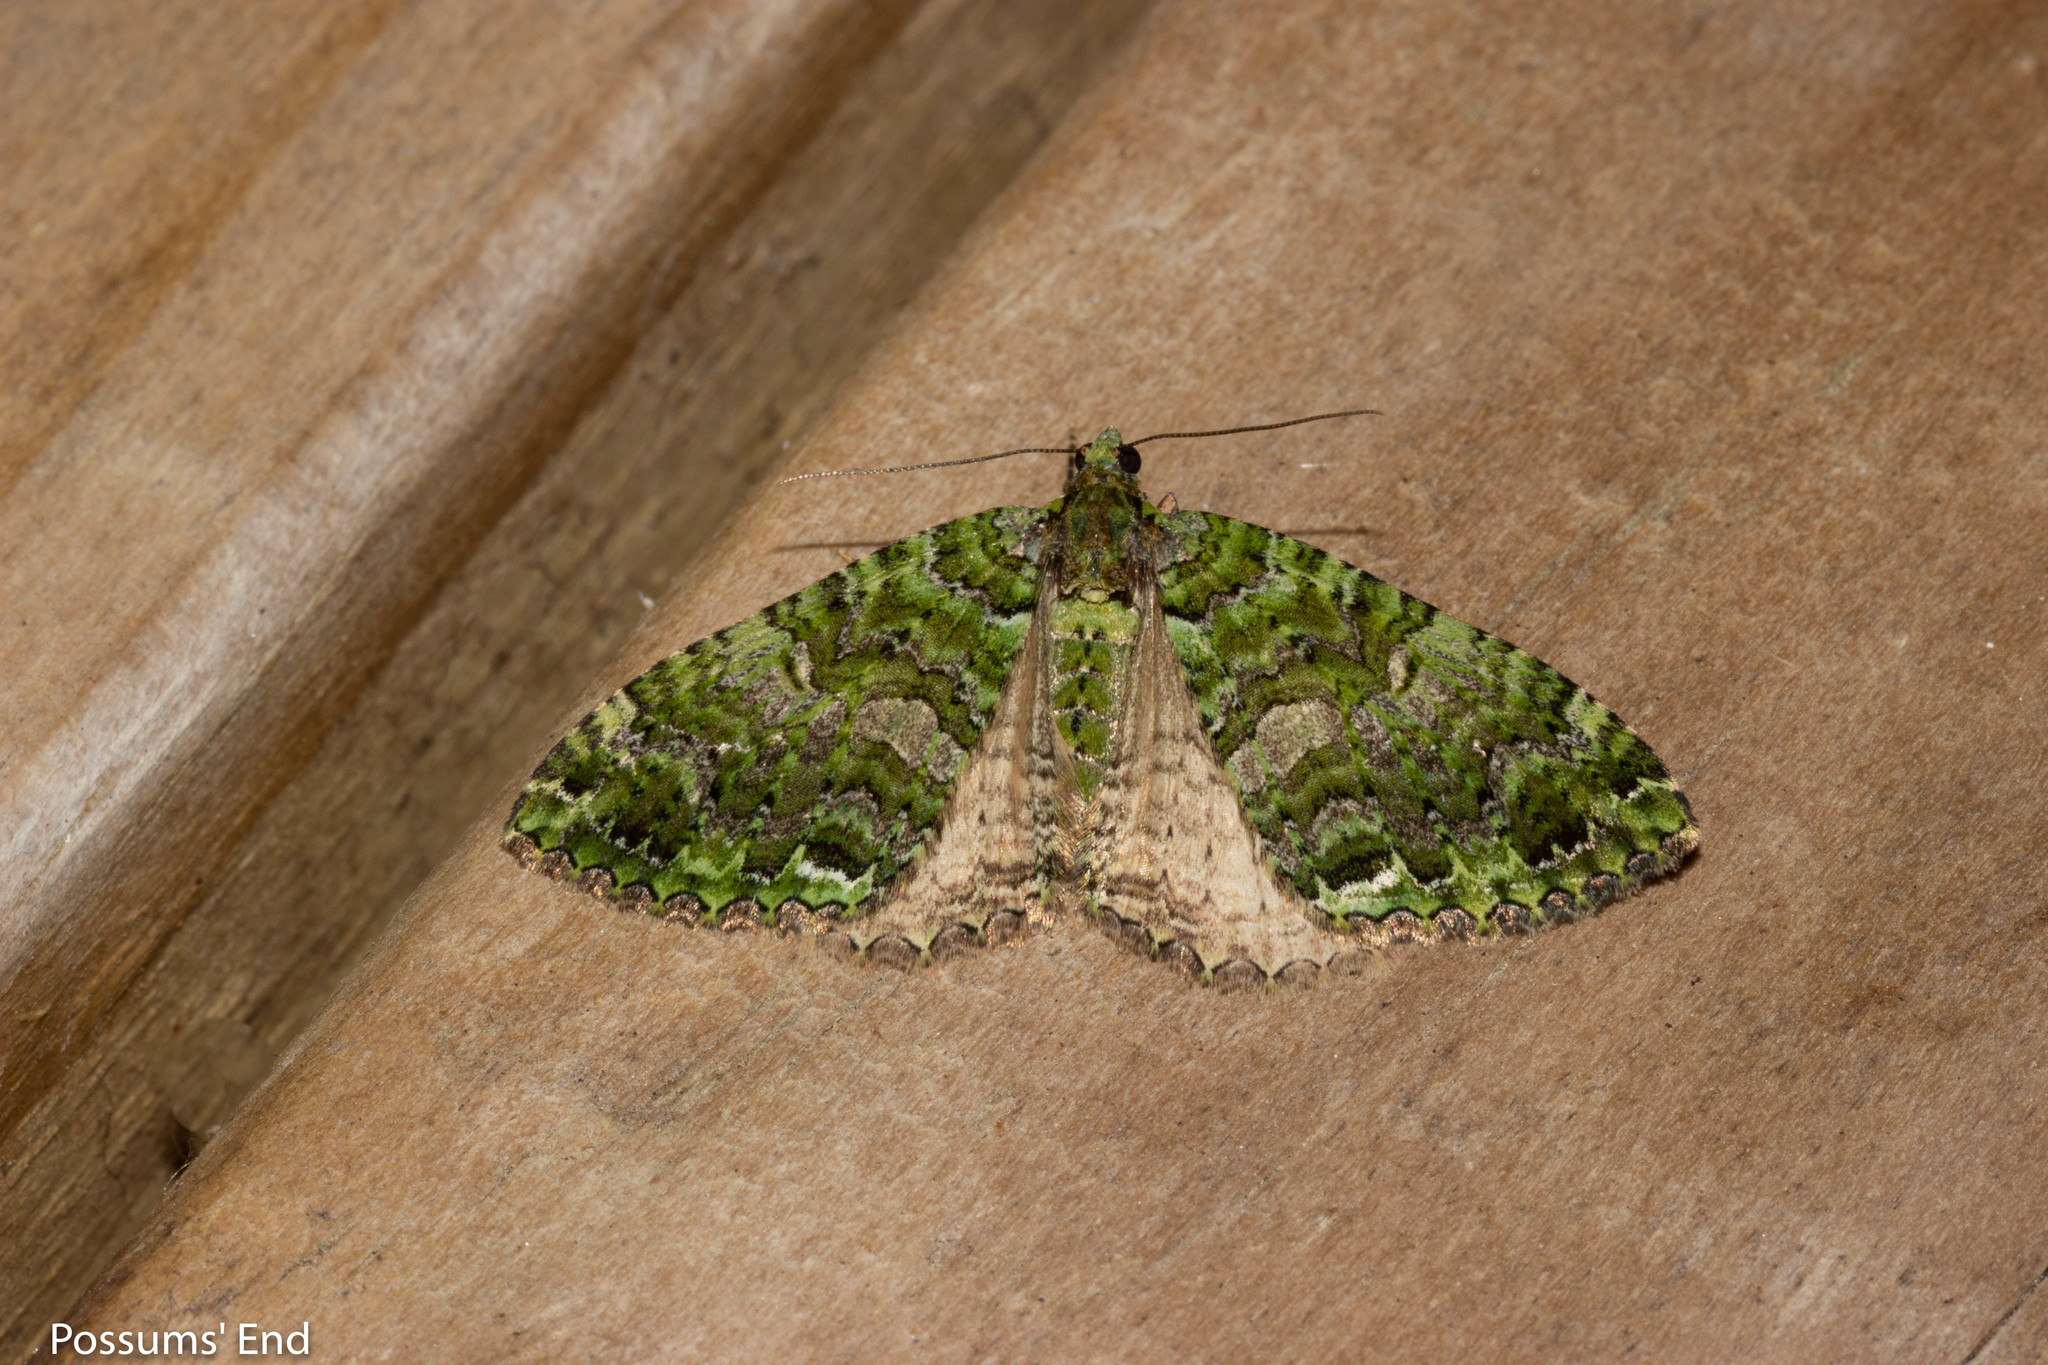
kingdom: Animalia
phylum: Arthropoda
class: Insecta
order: Lepidoptera
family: Geometridae
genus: Austrocidaria
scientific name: Austrocidaria similata
